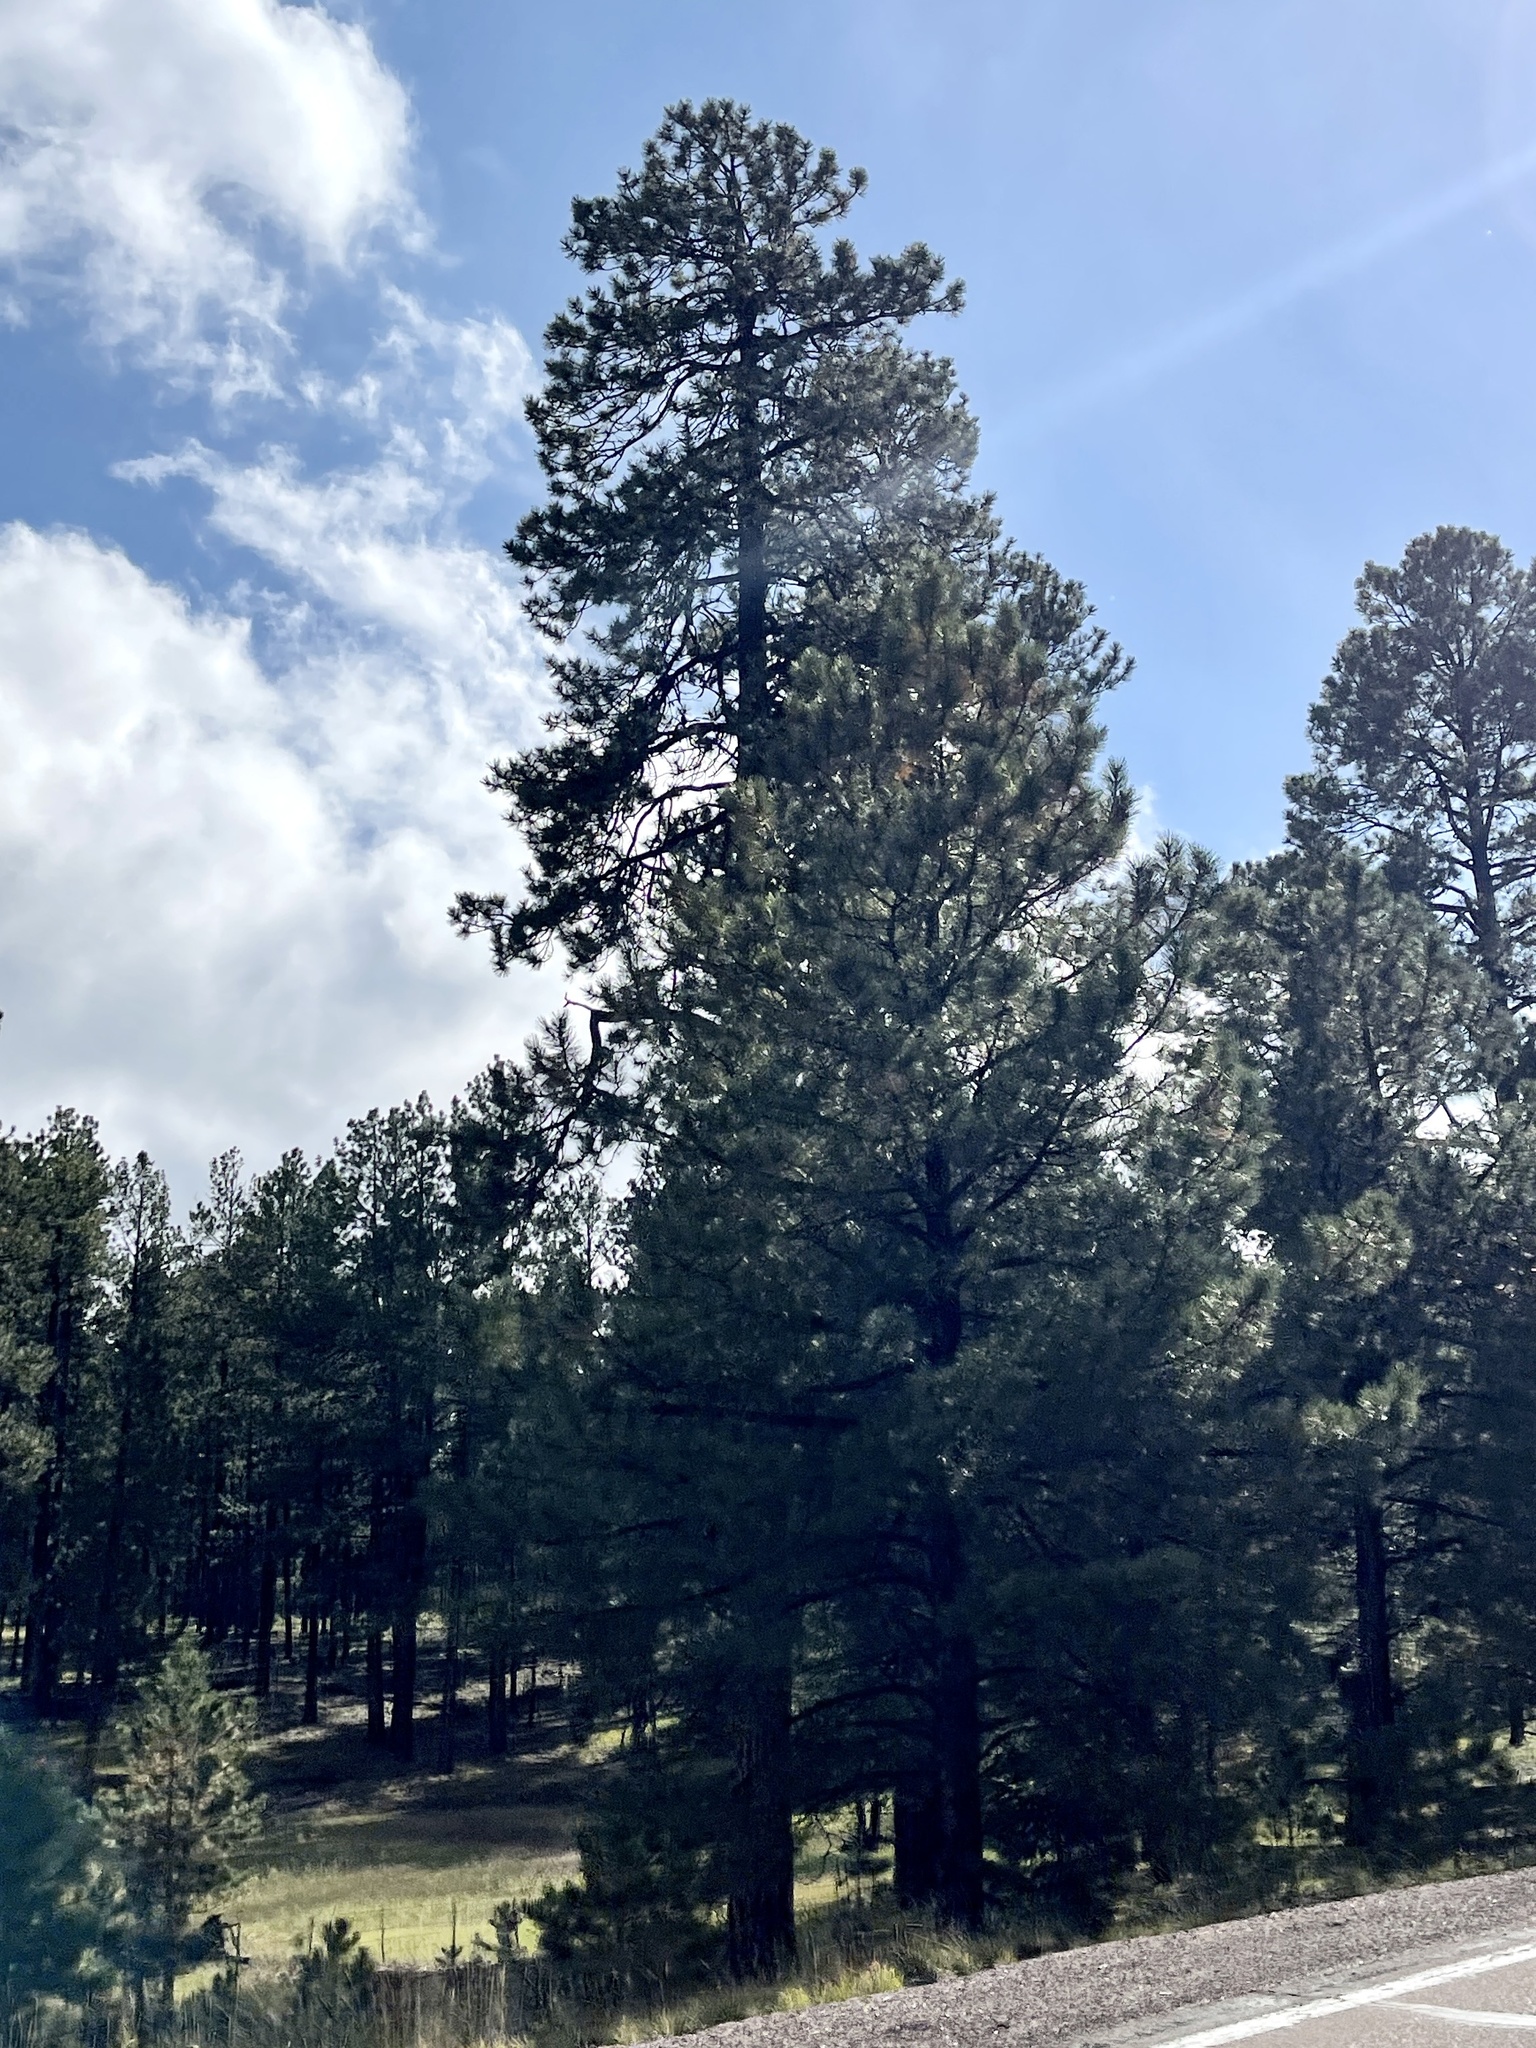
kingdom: Plantae
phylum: Tracheophyta
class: Pinopsida
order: Pinales
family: Pinaceae
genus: Pinus
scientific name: Pinus ponderosa
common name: Western yellow-pine
